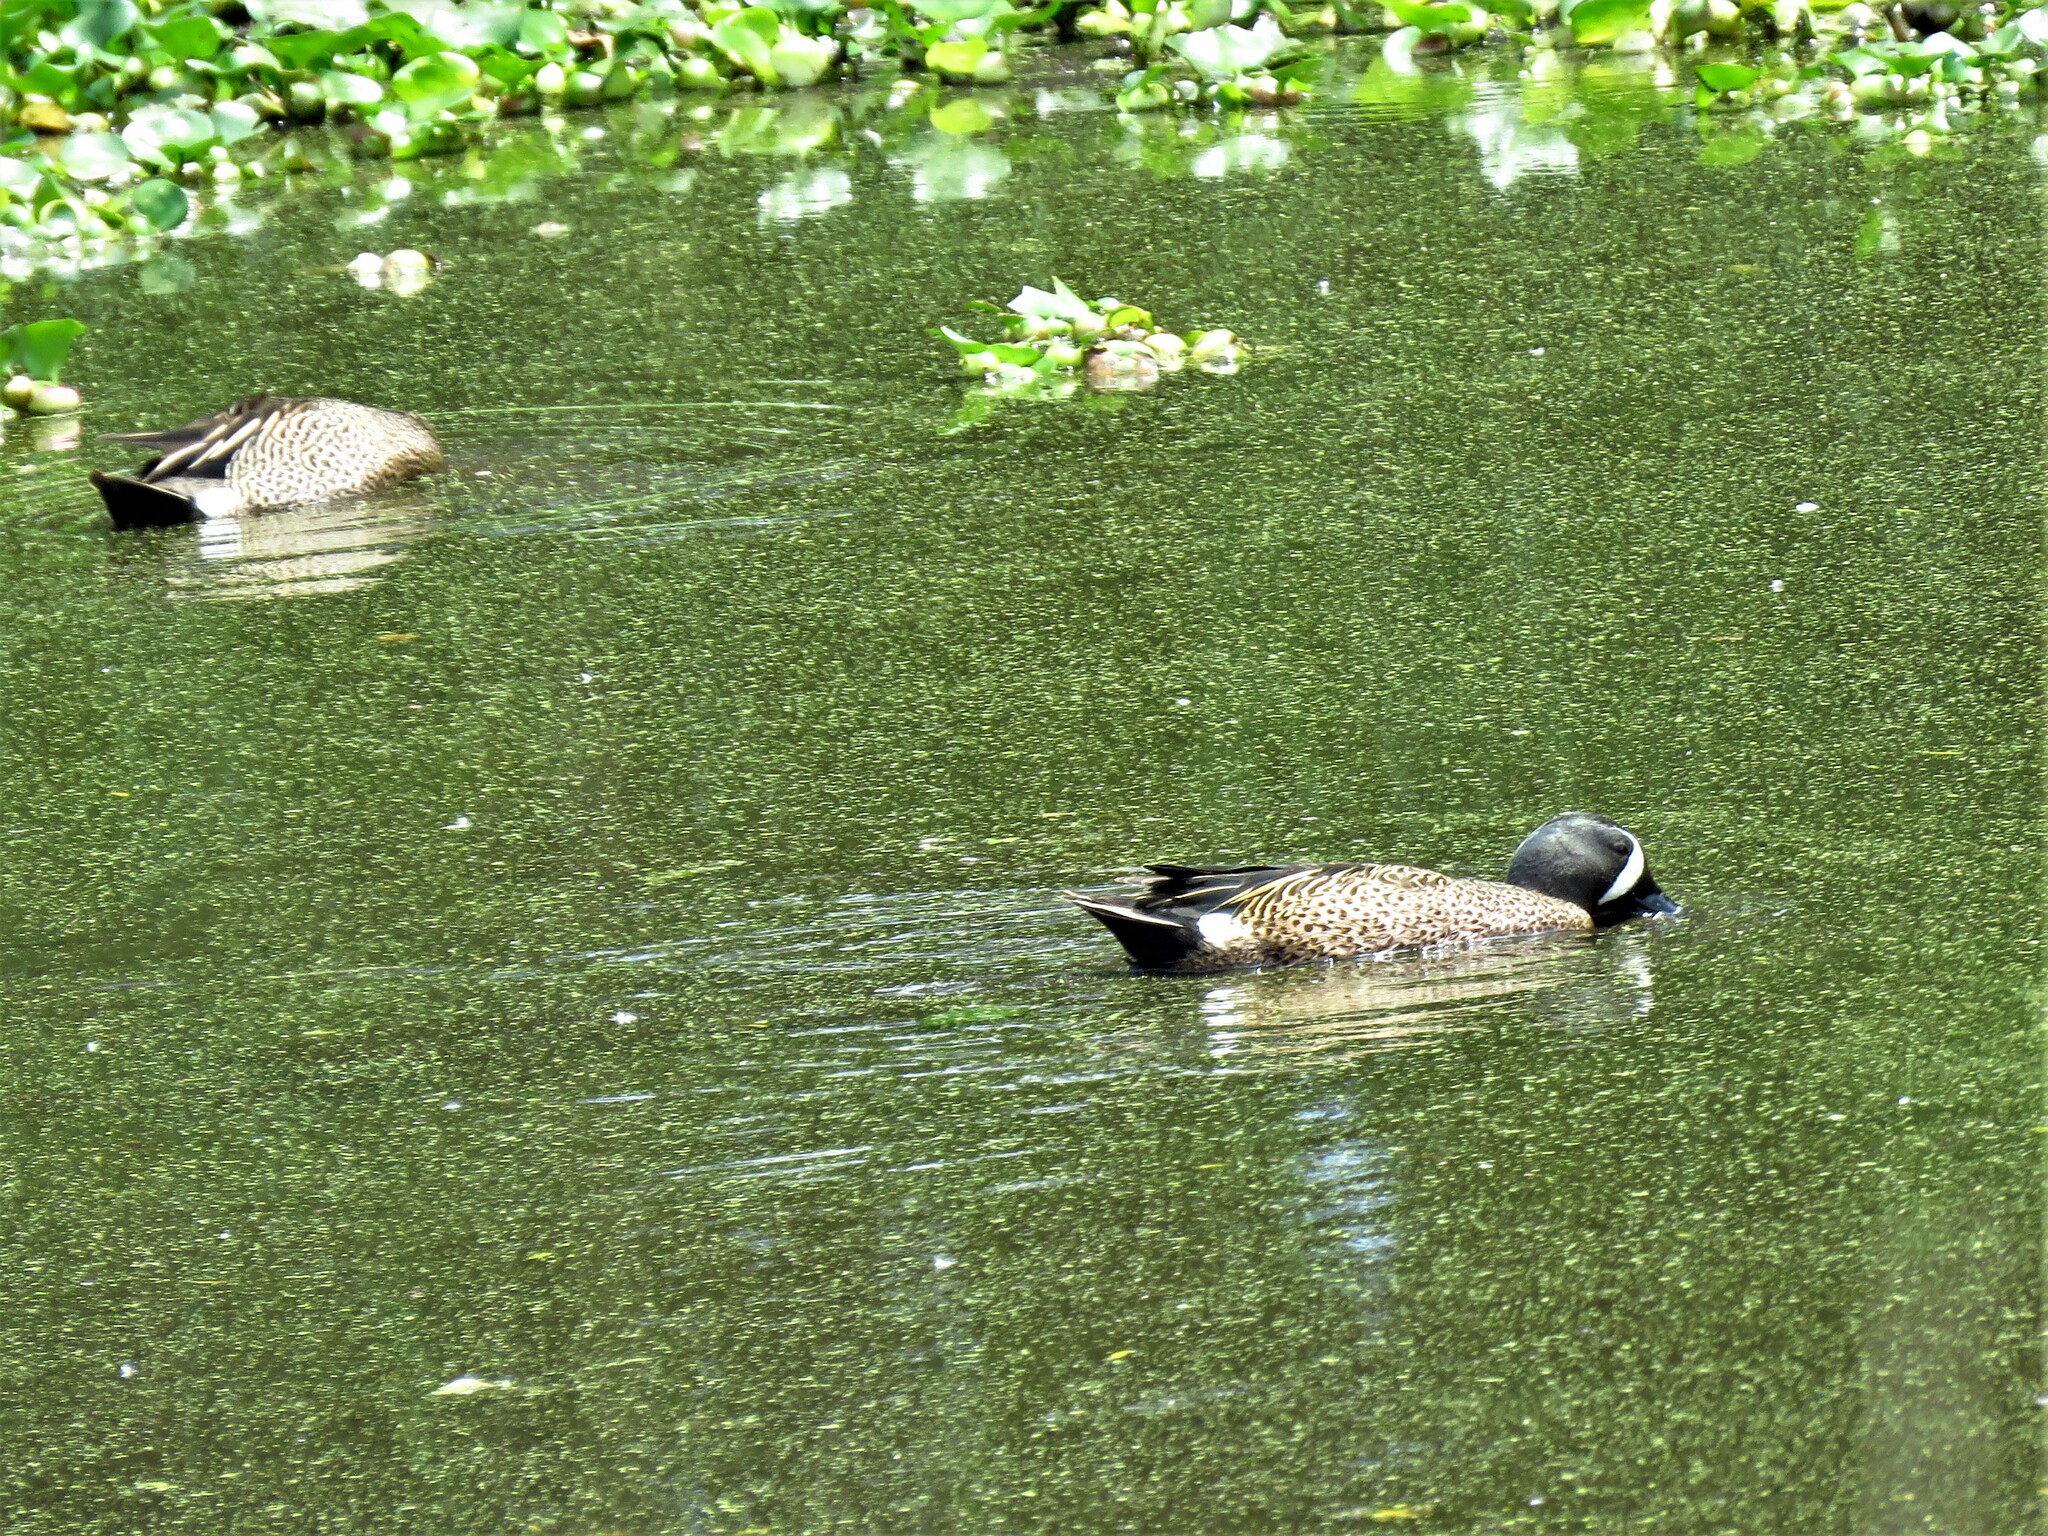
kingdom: Animalia
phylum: Chordata
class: Aves
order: Anseriformes
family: Anatidae
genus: Spatula
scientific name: Spatula discors
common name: Blue-winged teal
